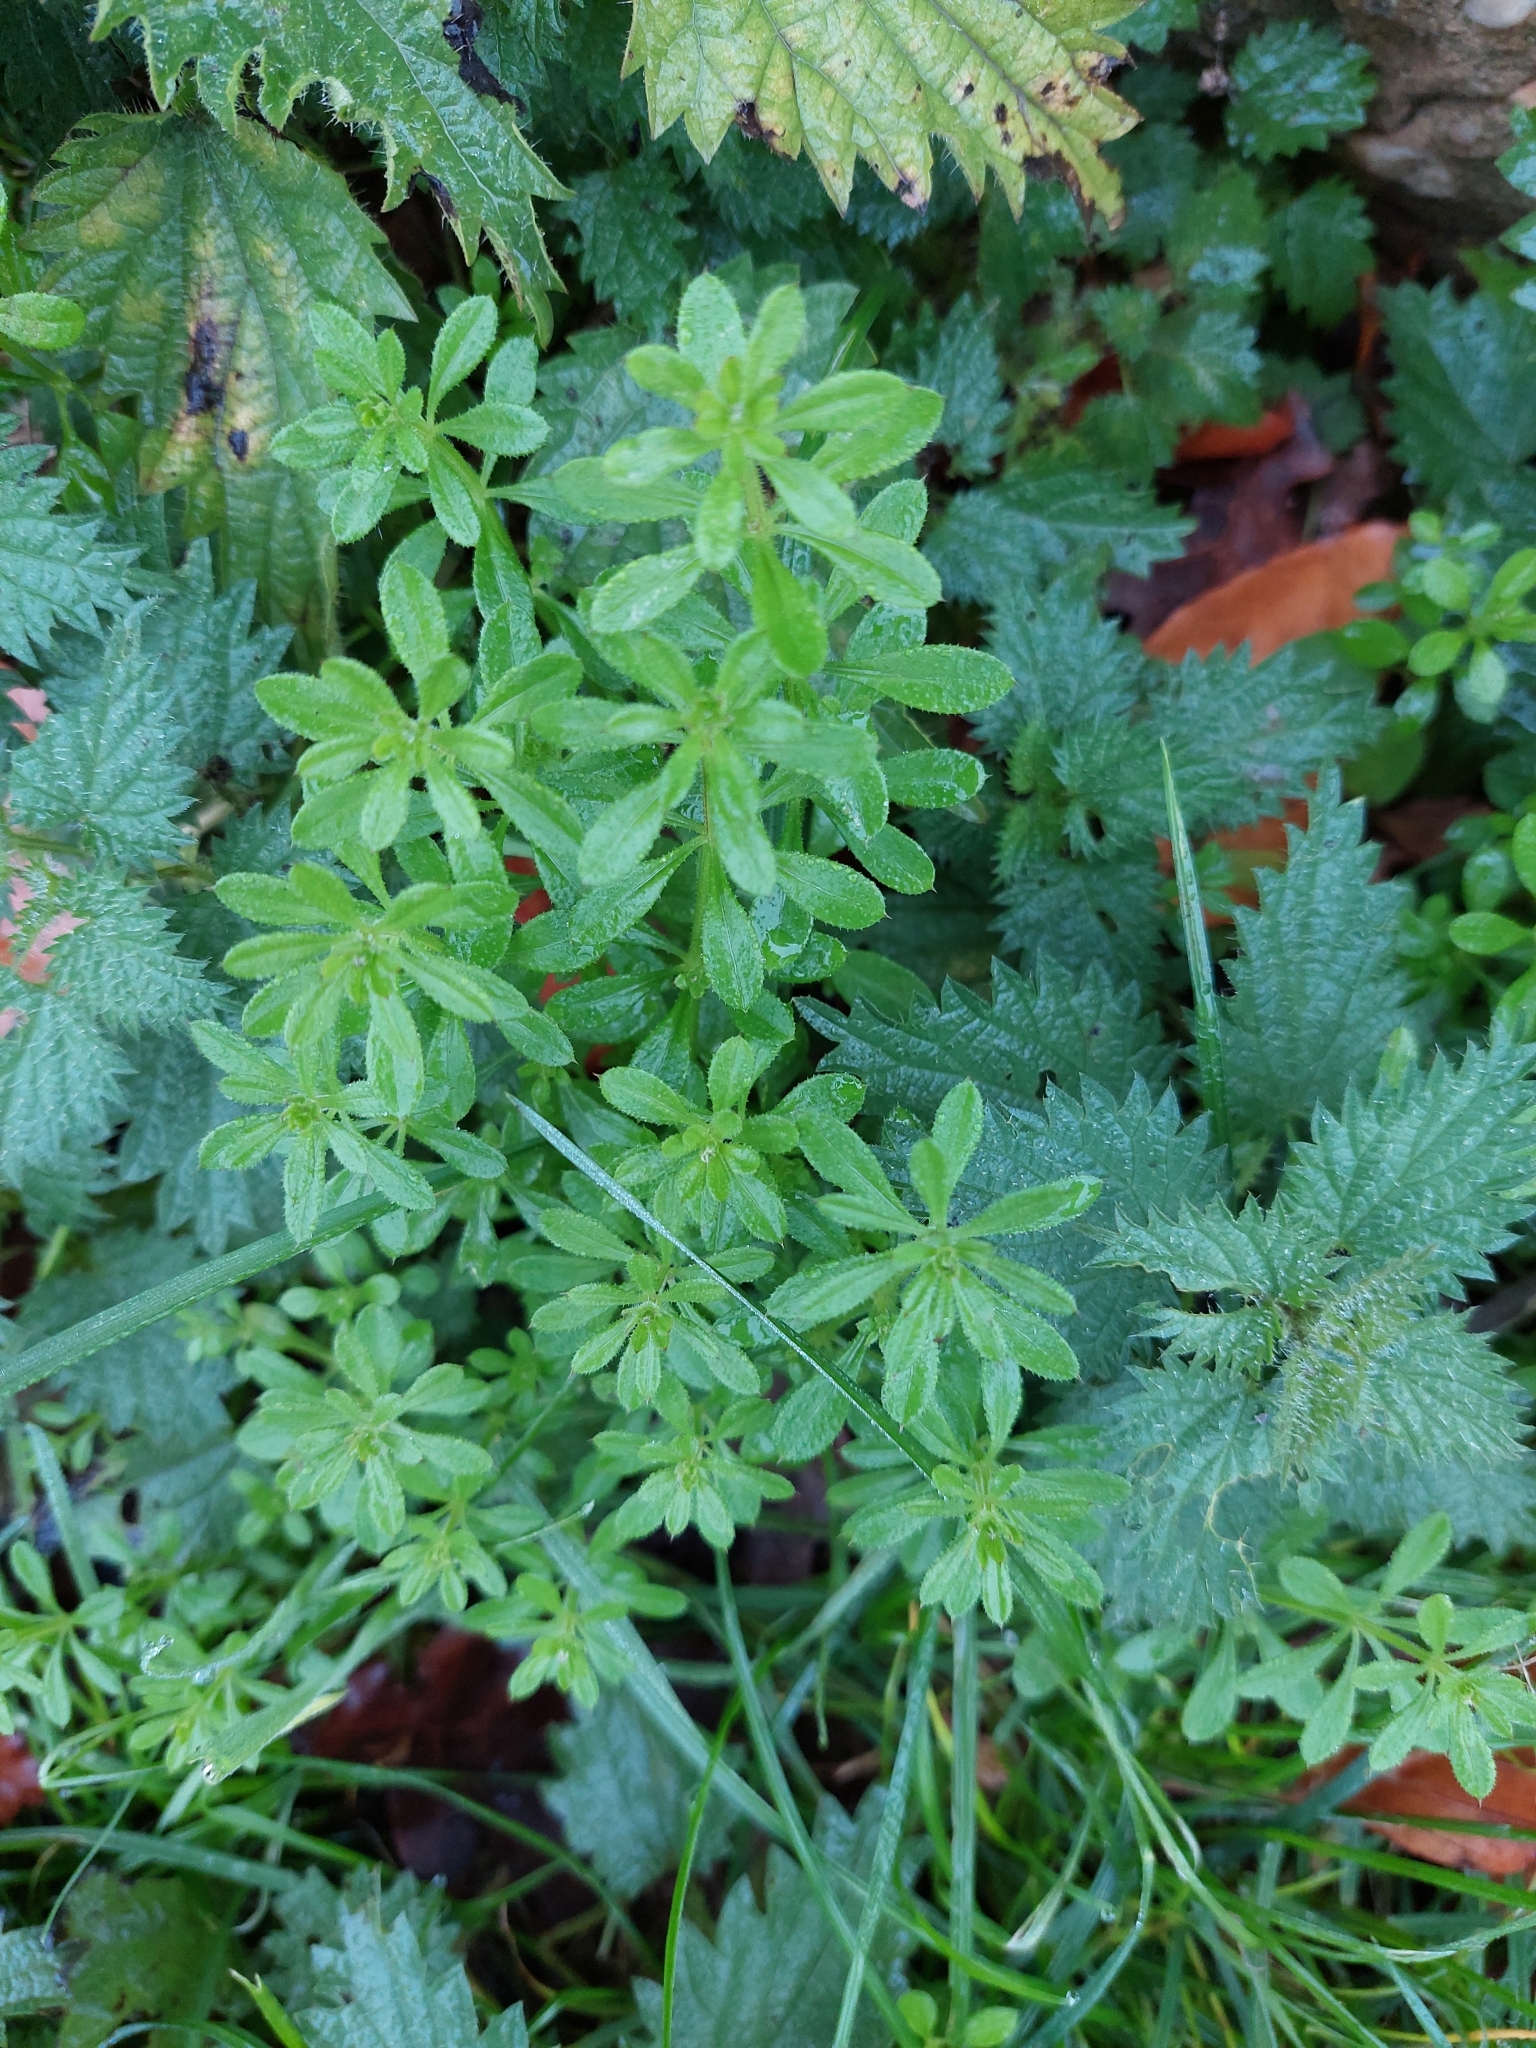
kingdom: Plantae
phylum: Tracheophyta
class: Magnoliopsida
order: Gentianales
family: Rubiaceae
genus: Galium
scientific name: Galium aparine
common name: Cleavers
